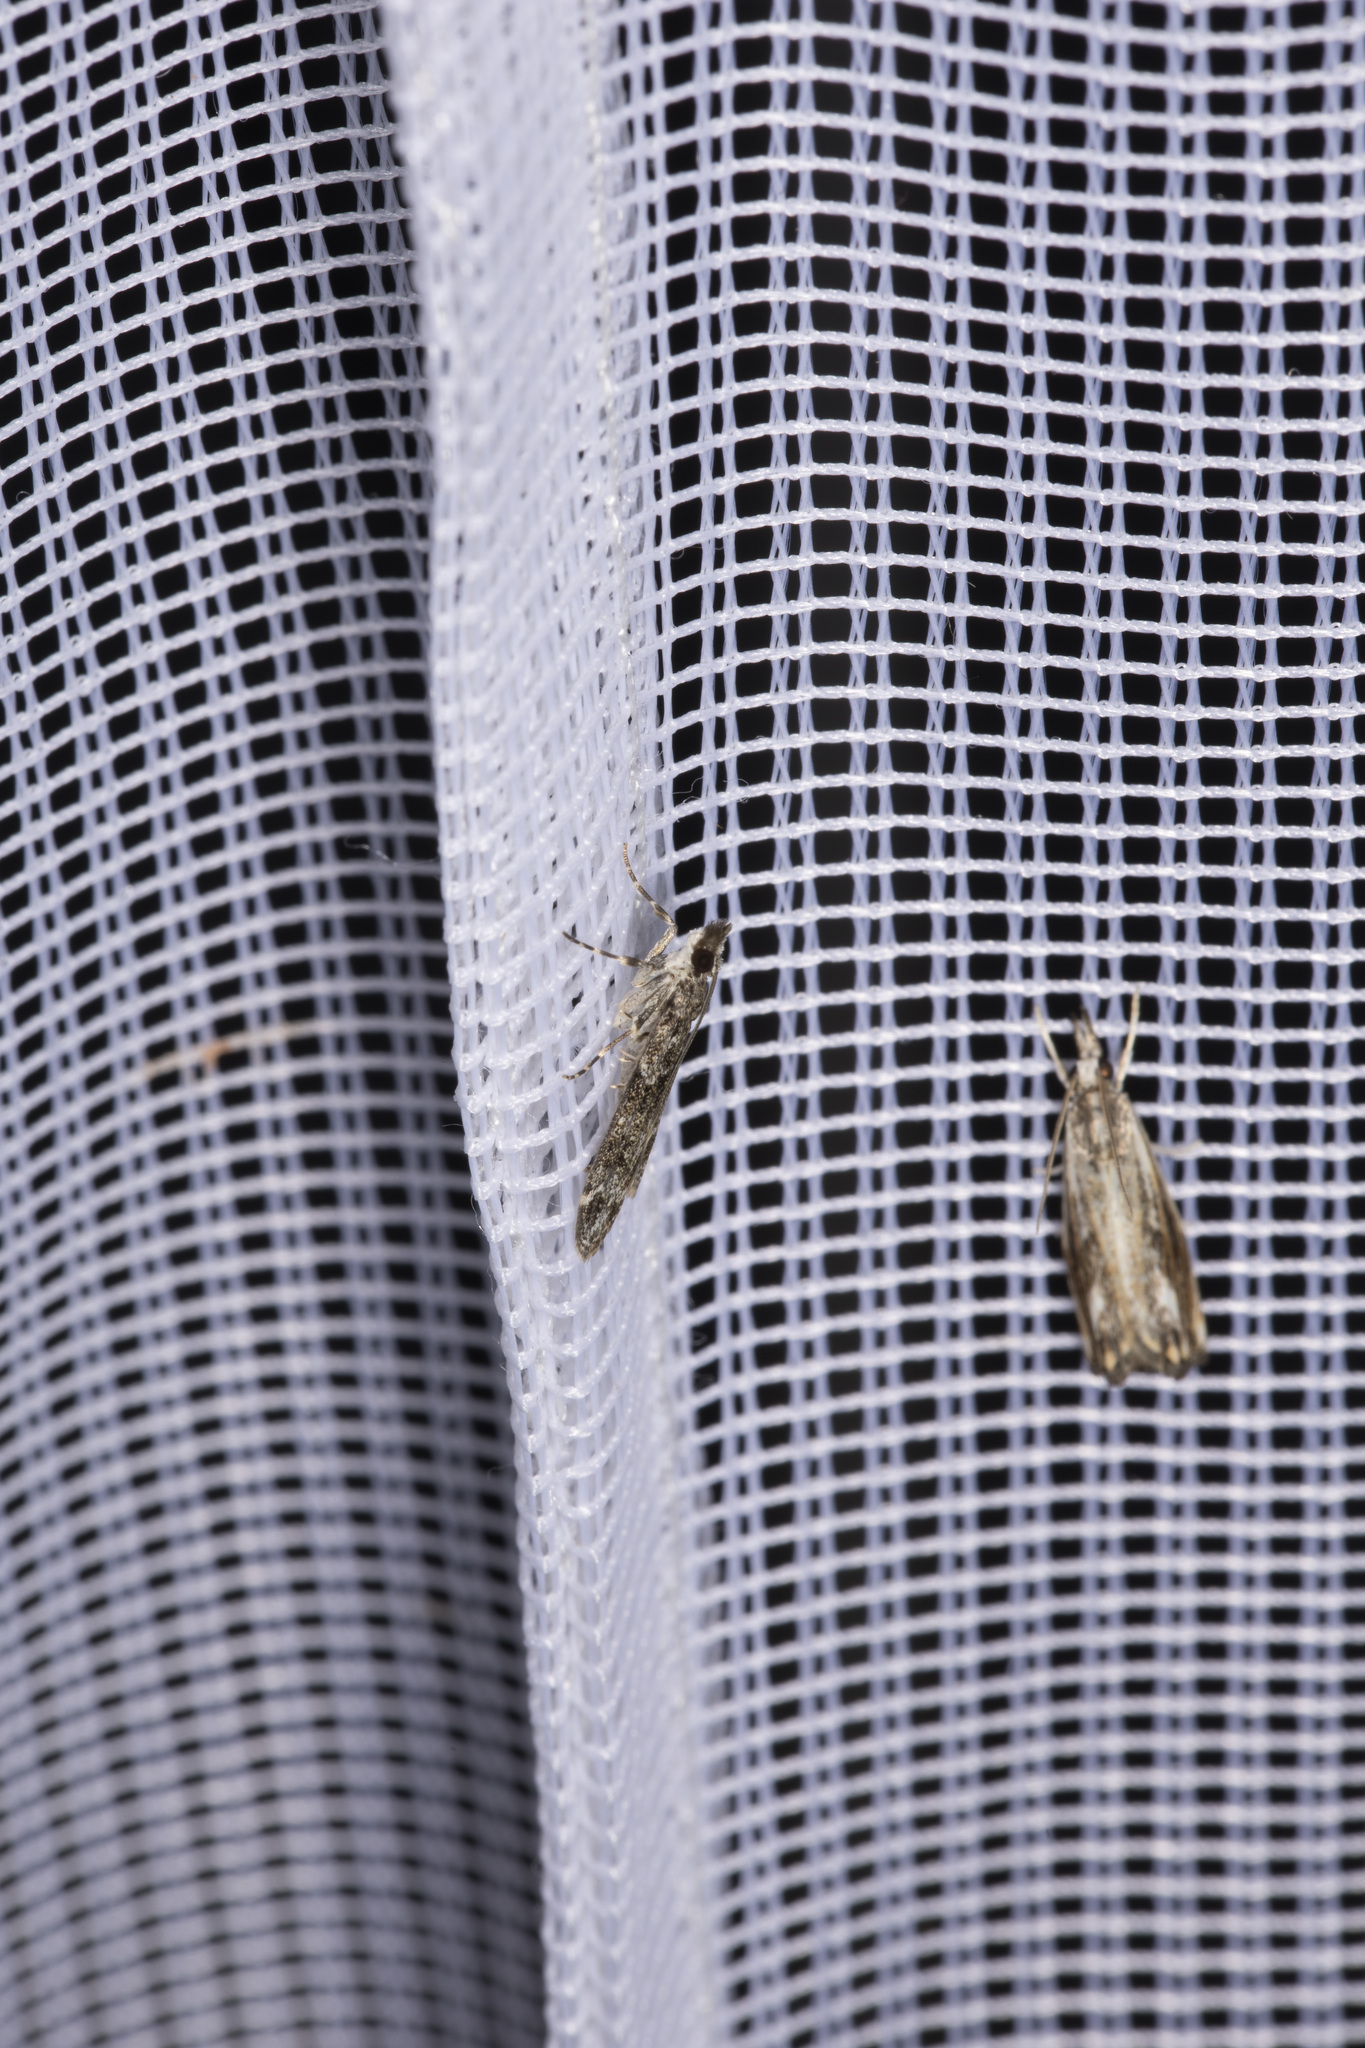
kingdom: Animalia
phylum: Arthropoda
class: Insecta
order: Lepidoptera
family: Crambidae
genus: Eudonia
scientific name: Eudonia mercurella
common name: Small grey
